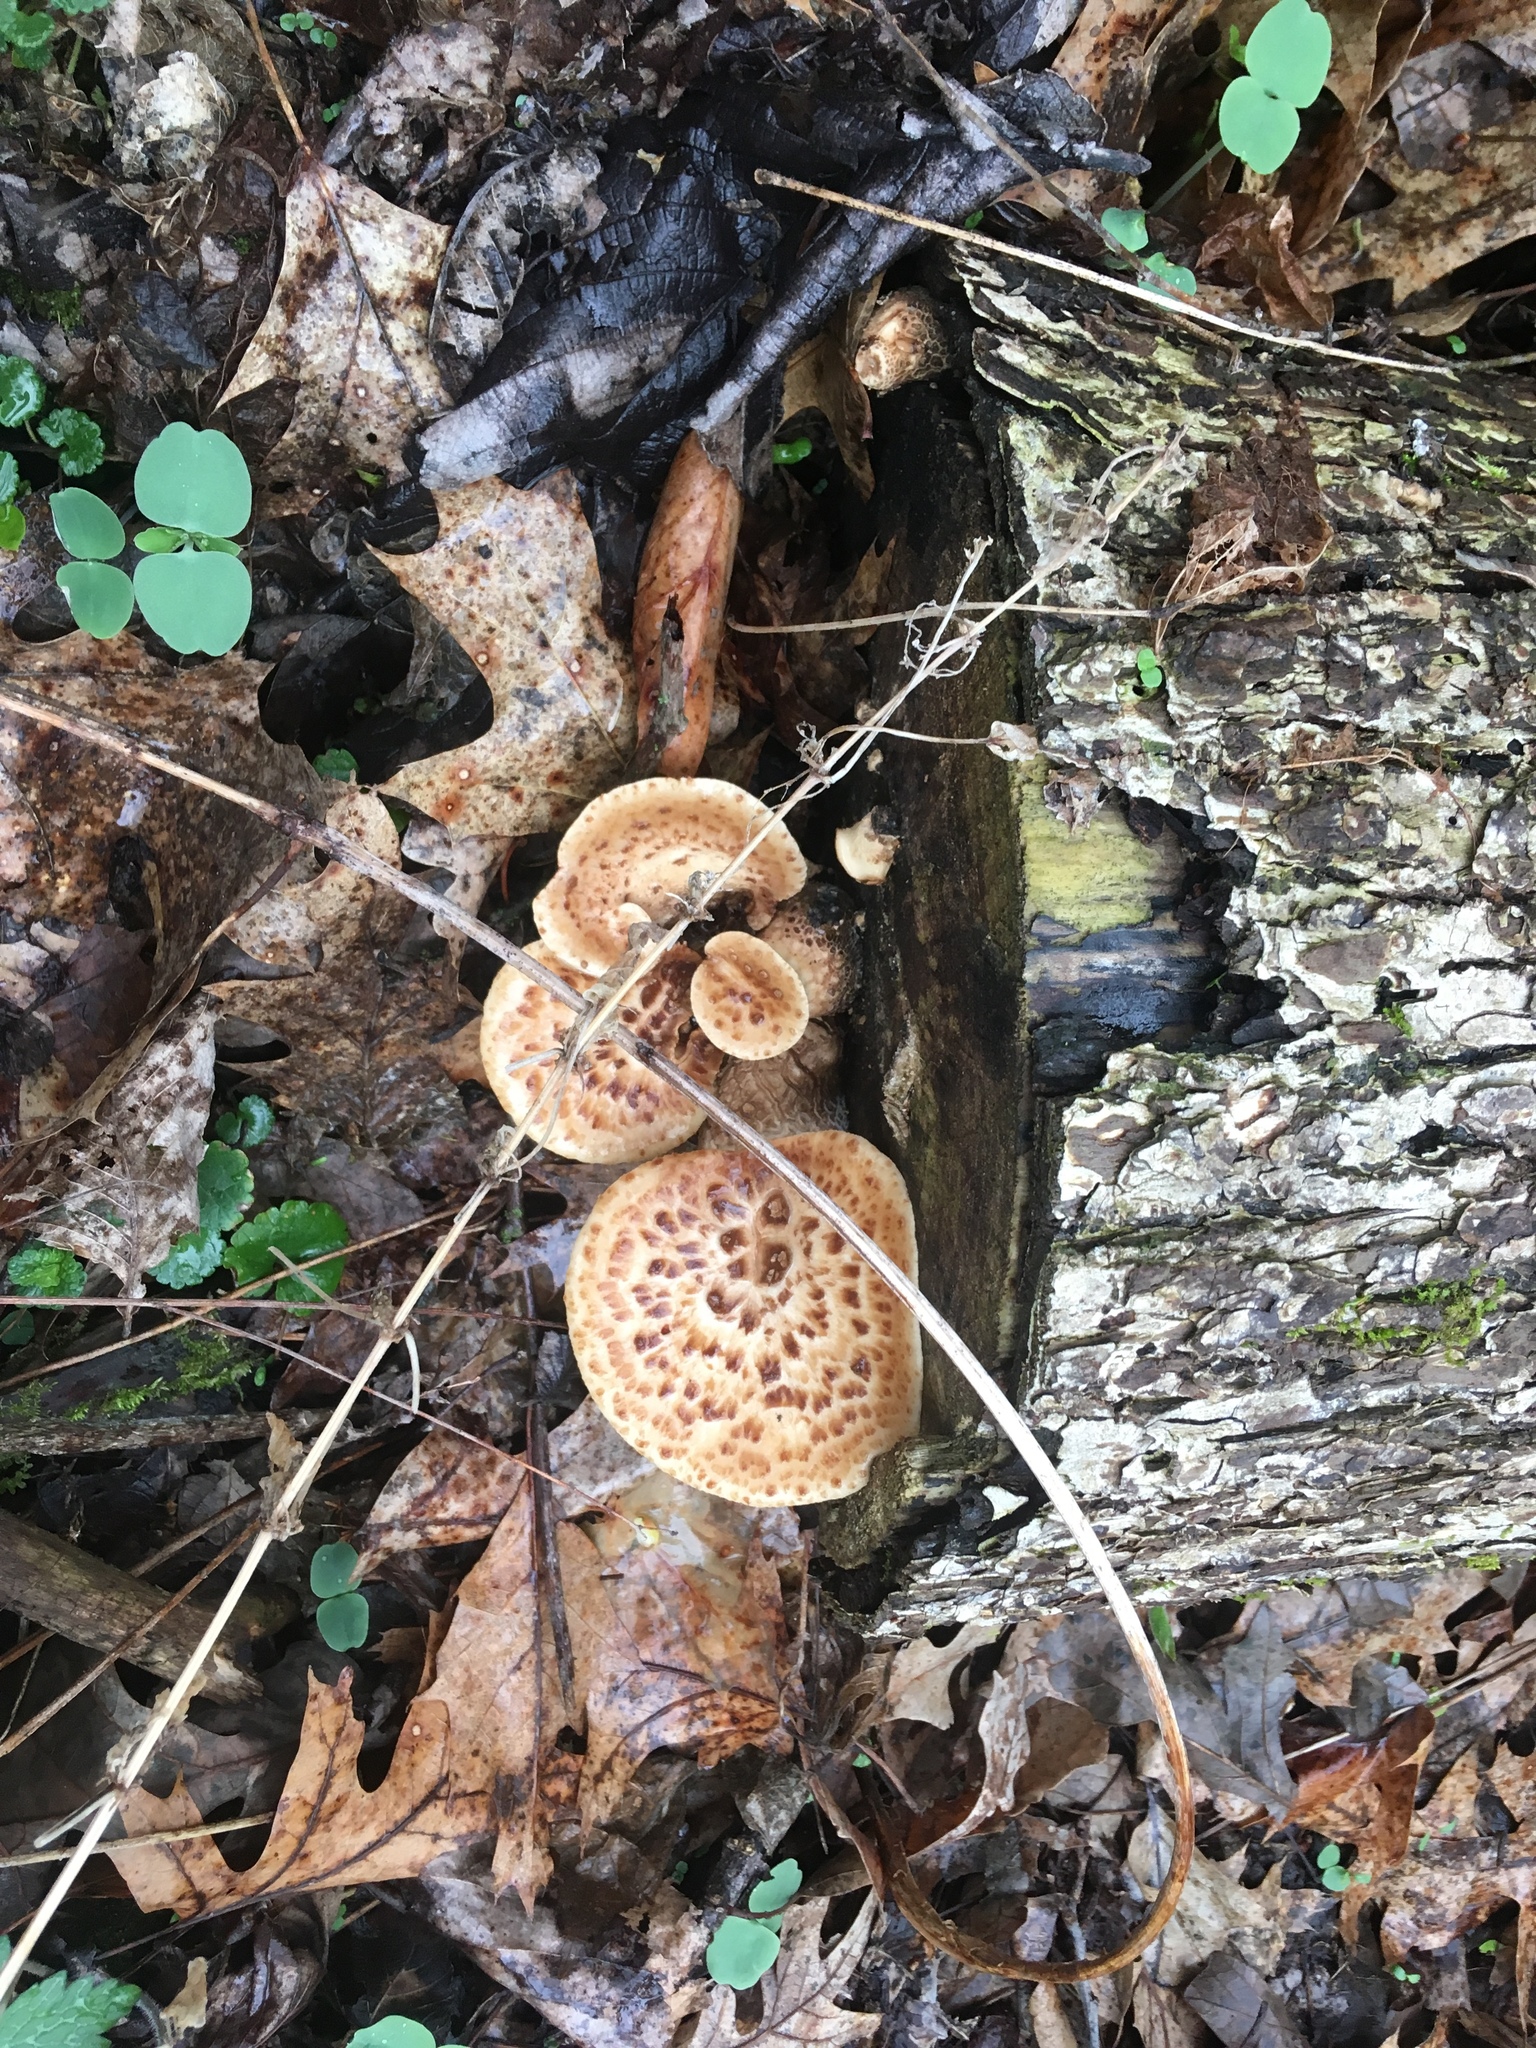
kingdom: Fungi
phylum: Basidiomycota
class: Agaricomycetes
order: Polyporales
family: Polyporaceae
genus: Cerioporus
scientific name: Cerioporus squamosus
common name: Dryad's saddle
